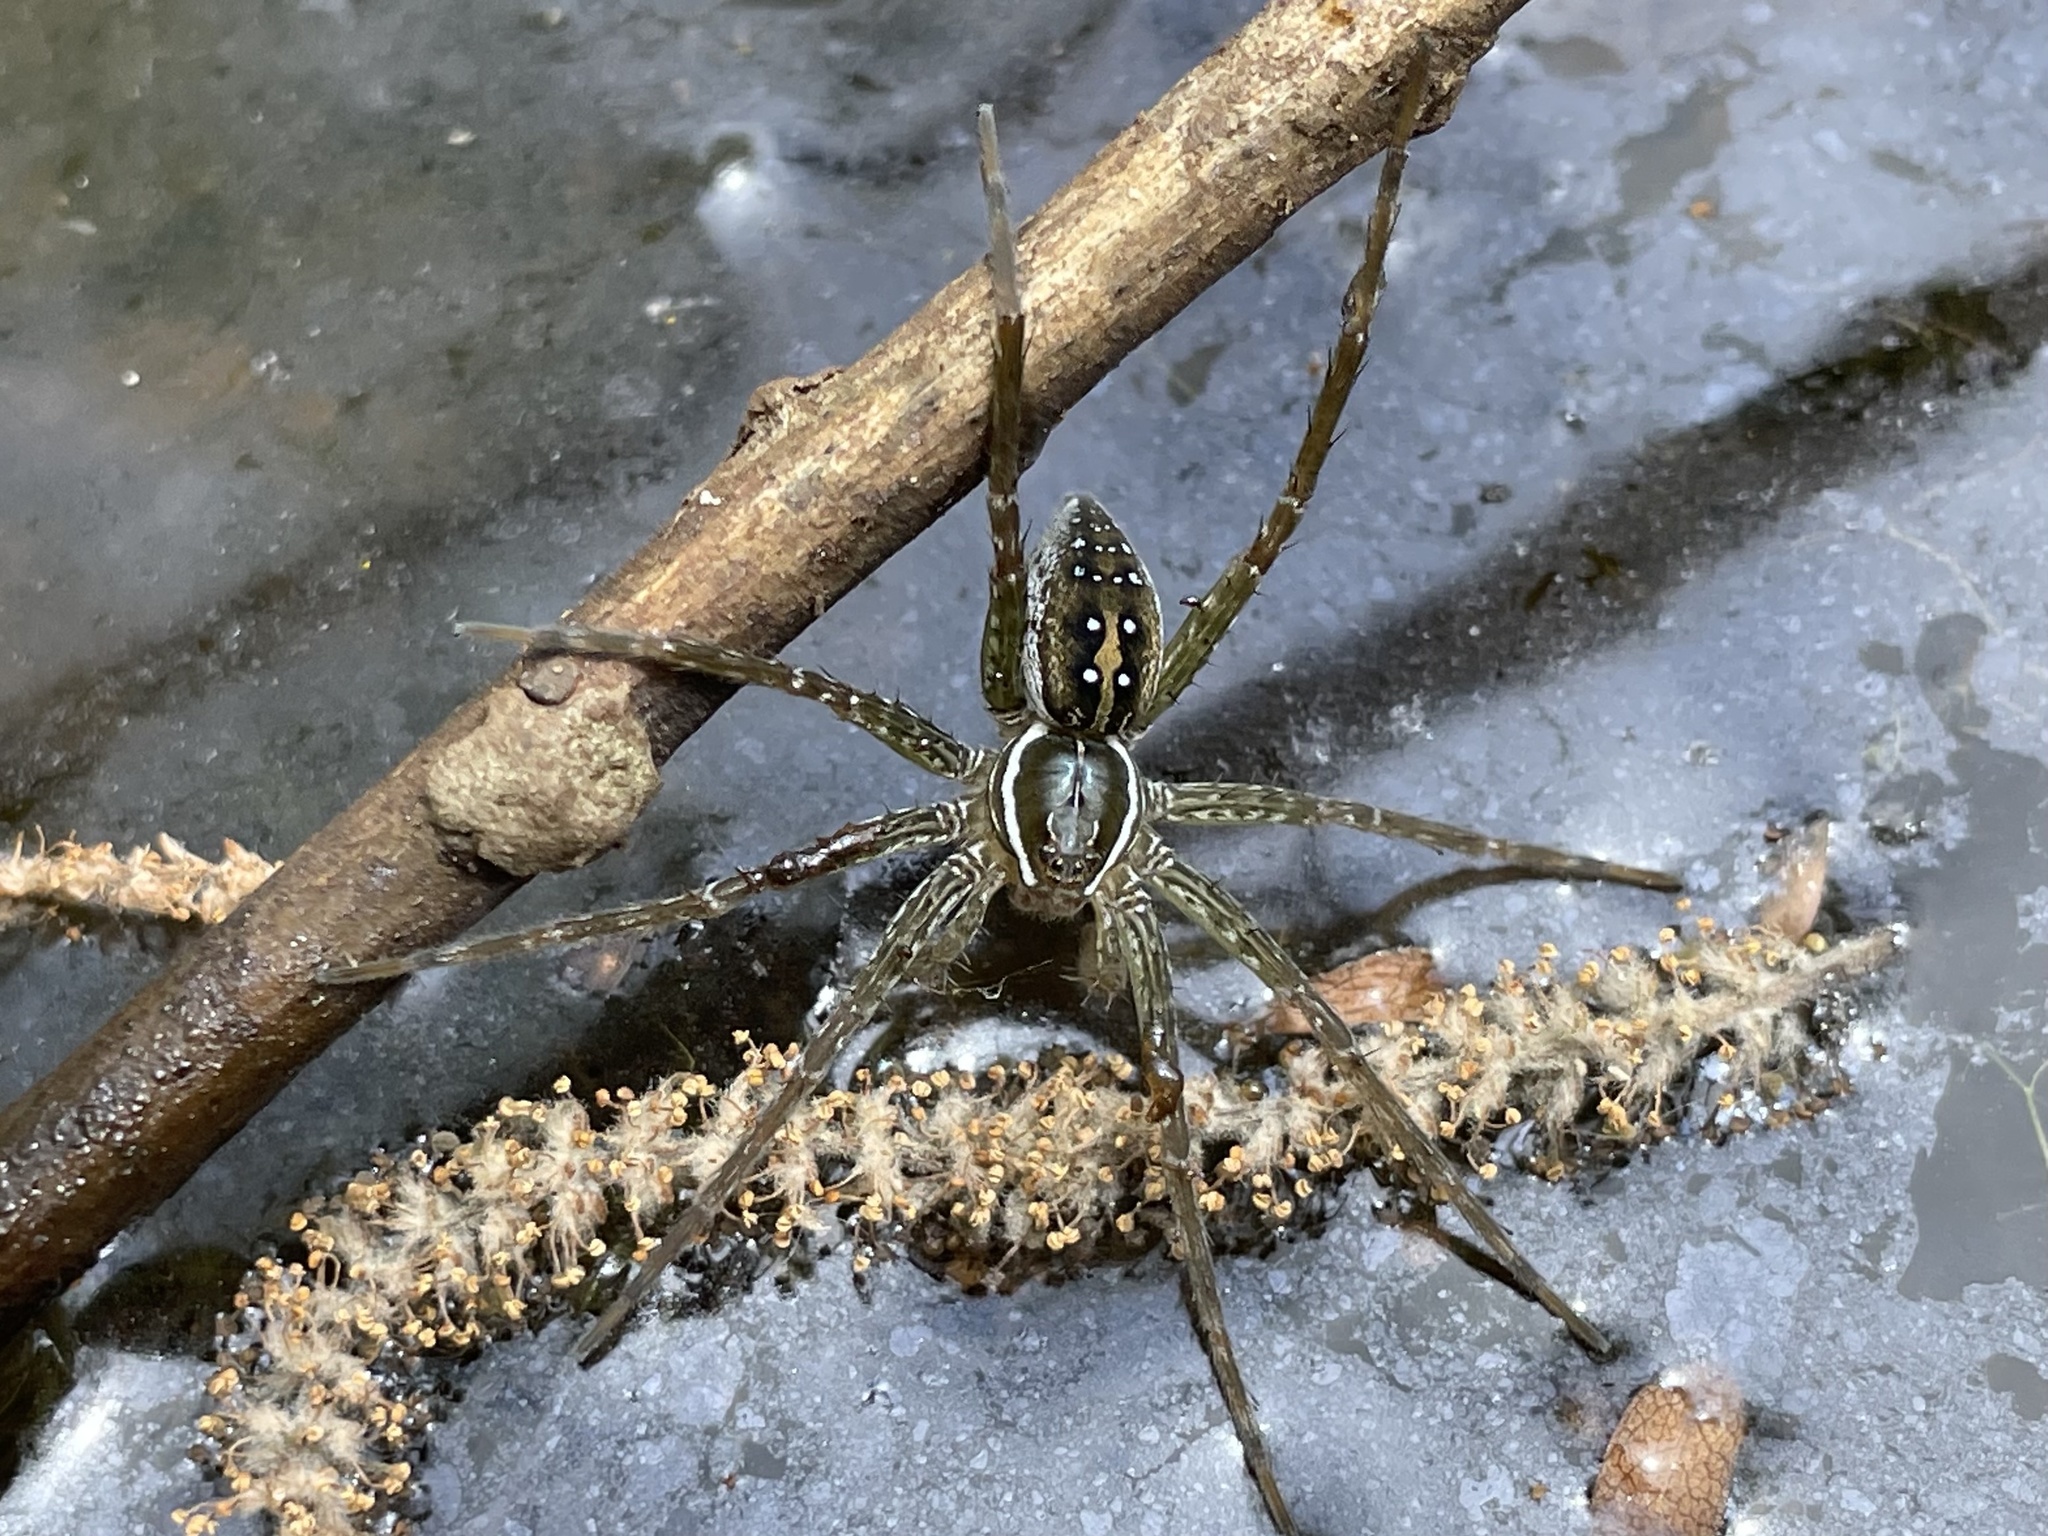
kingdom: Animalia
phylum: Arthropoda
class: Arachnida
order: Araneae
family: Pisauridae
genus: Dolomedes
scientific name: Dolomedes triton
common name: Six-spotted fishing spider
